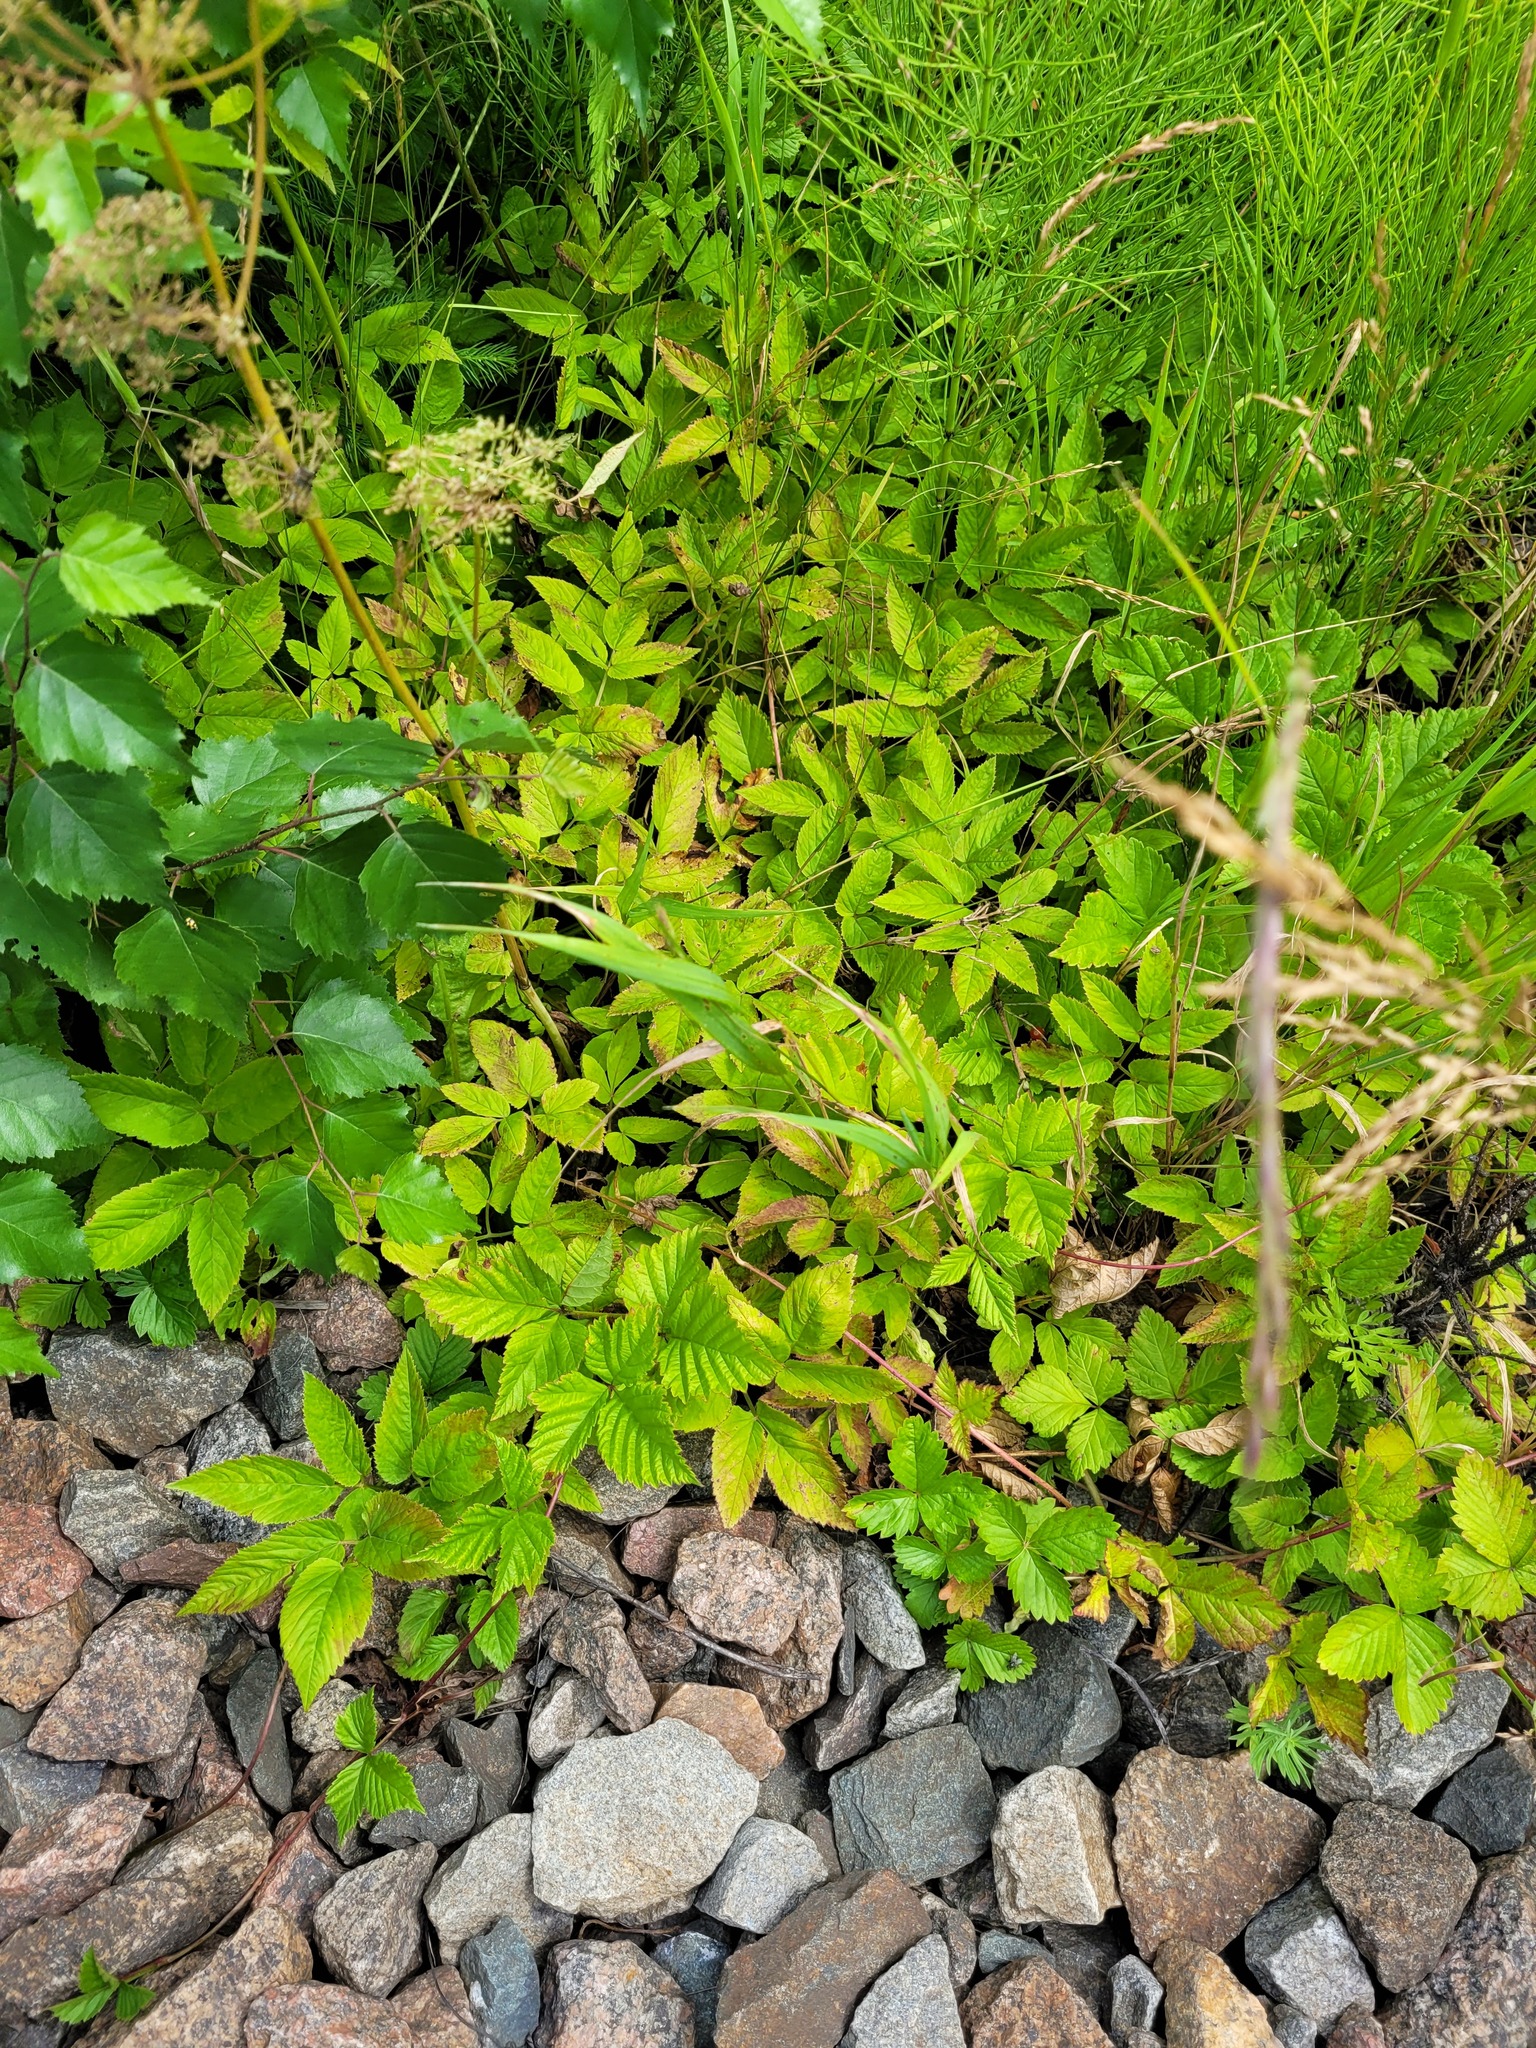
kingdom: Plantae
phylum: Tracheophyta
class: Magnoliopsida
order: Rosales
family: Rosaceae
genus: Rubus
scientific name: Rubus saxatilis
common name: Stone bramble
